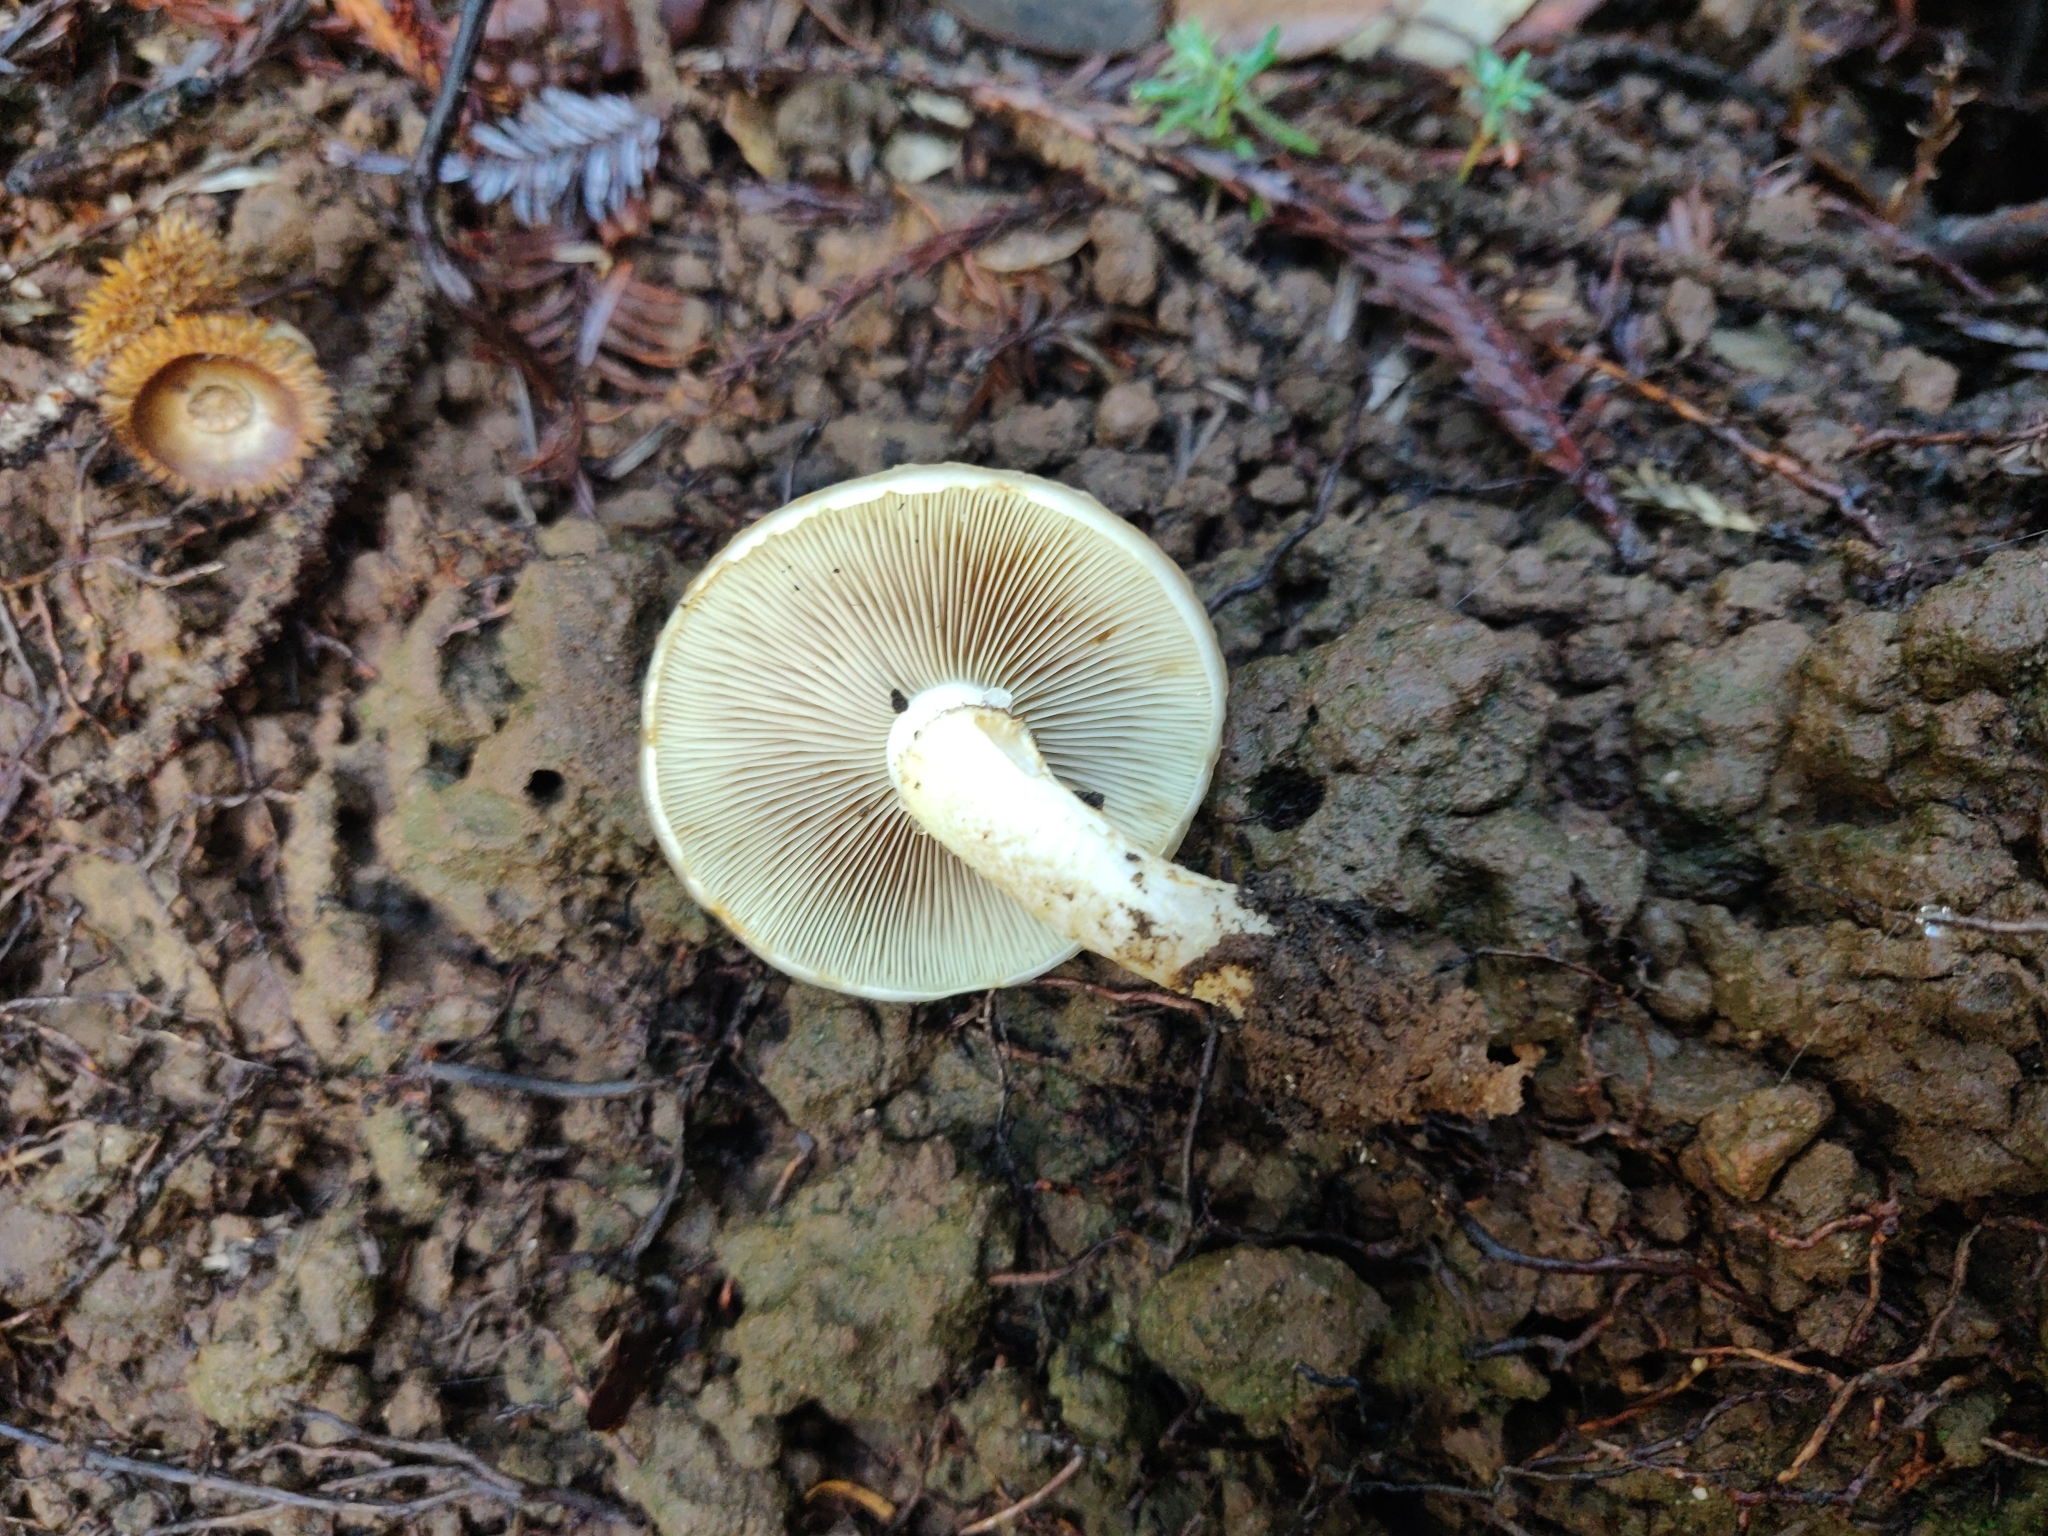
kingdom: Fungi
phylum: Basidiomycota
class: Agaricomycetes
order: Agaricales
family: Strophariaceae
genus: Pholiota
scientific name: Pholiota spumosa
